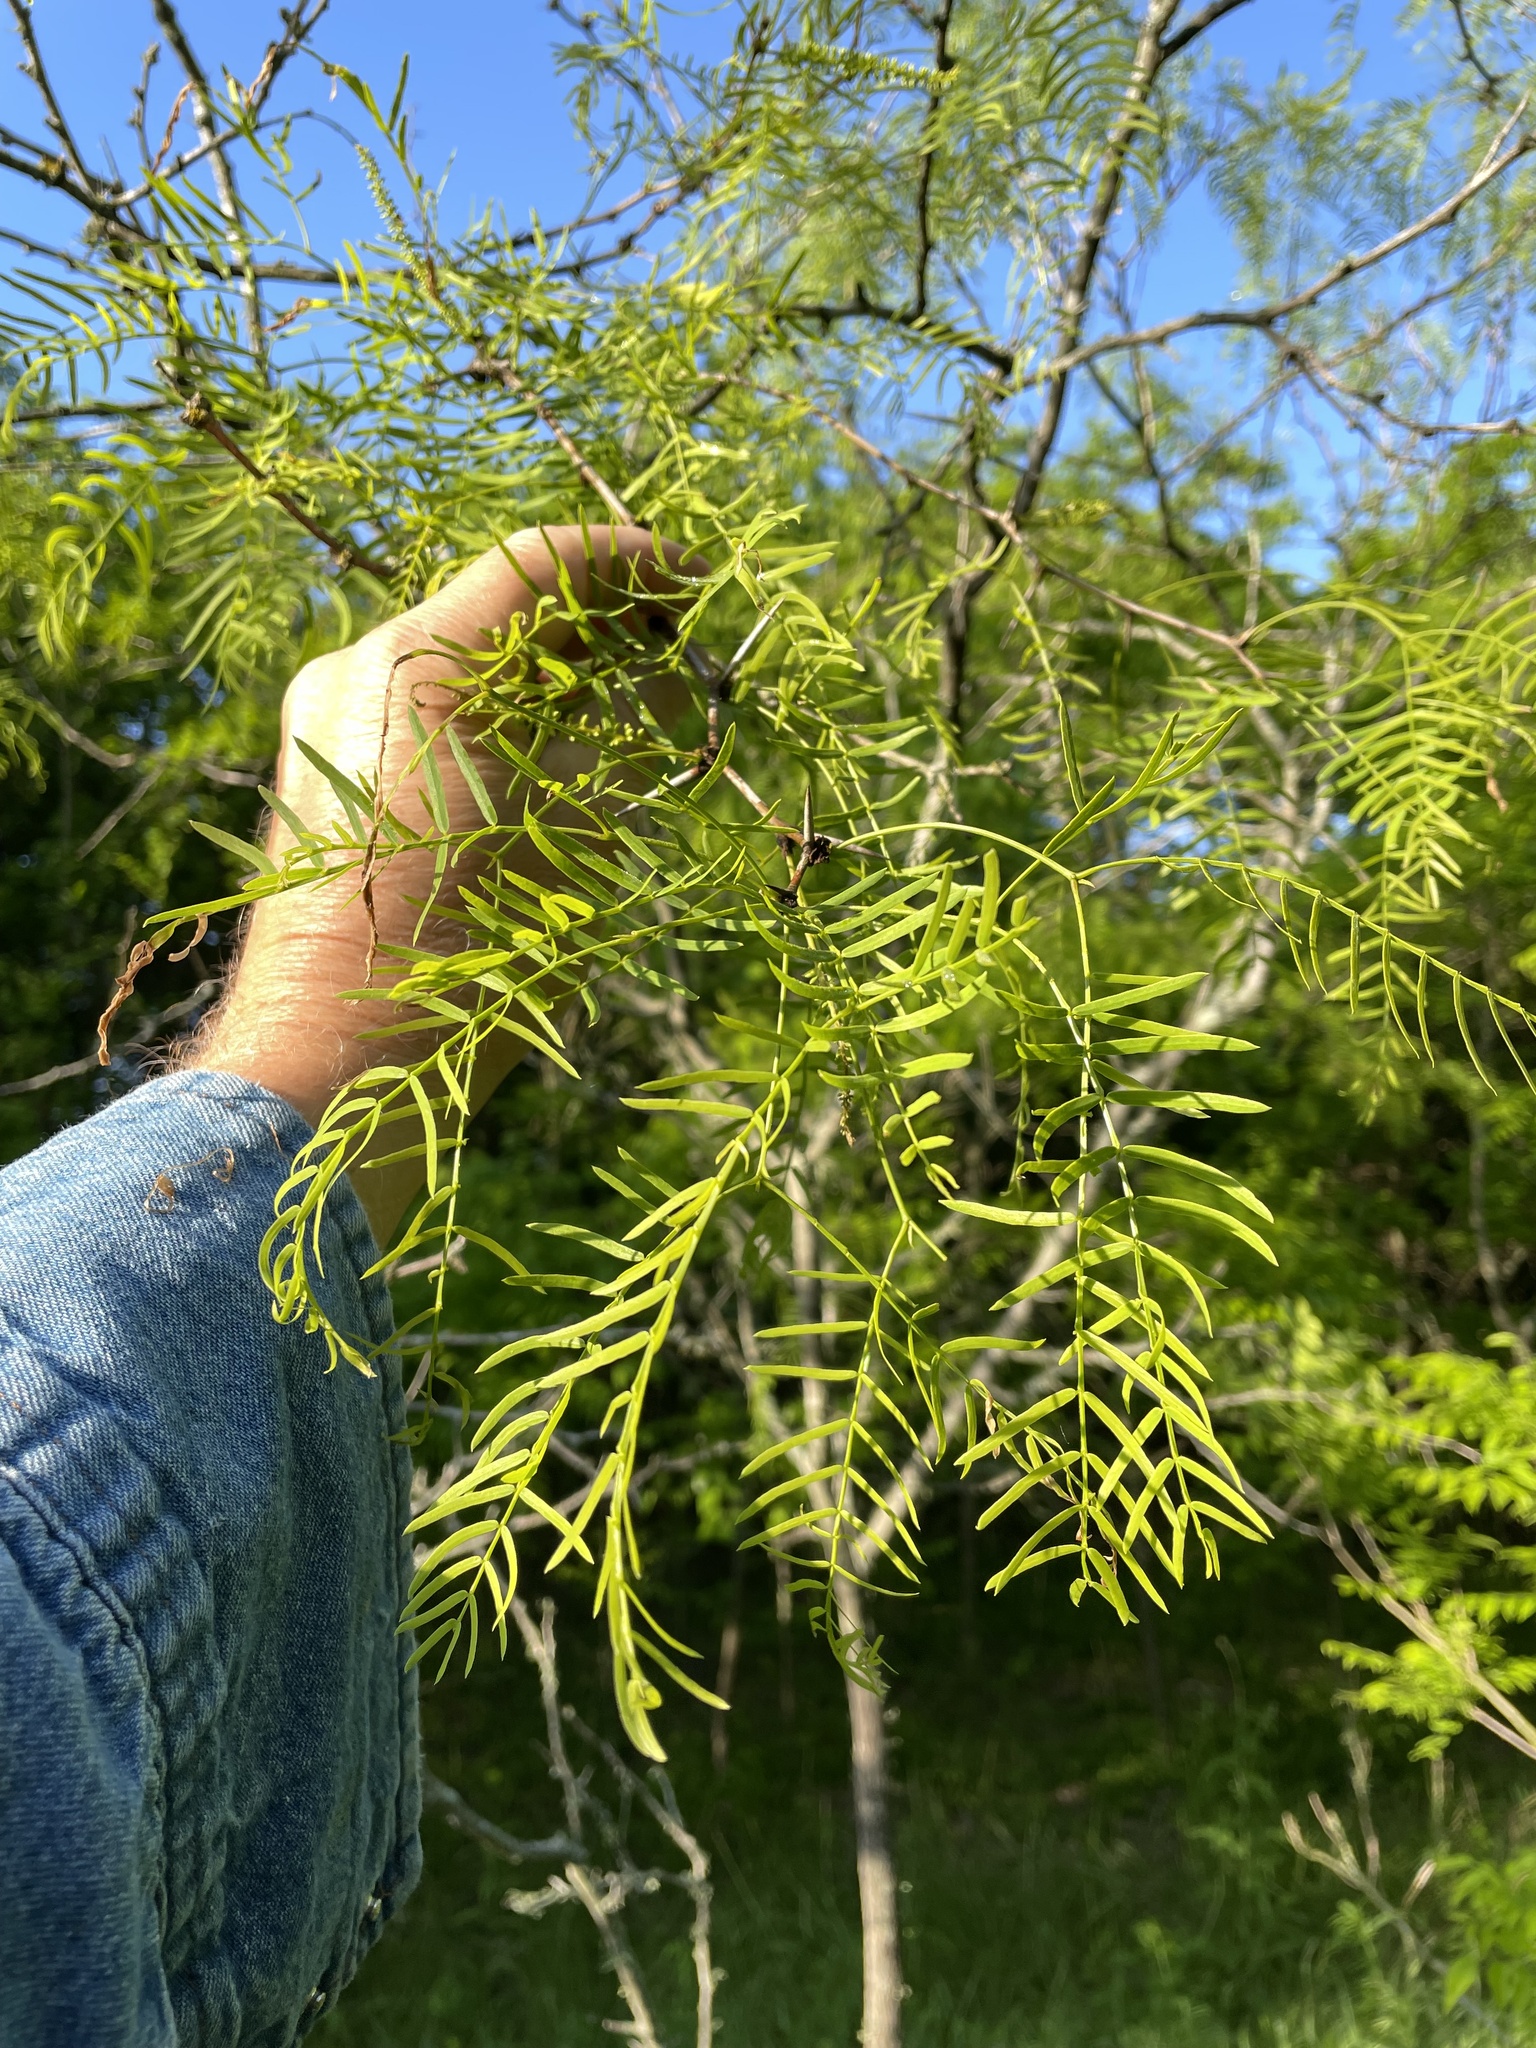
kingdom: Plantae
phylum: Tracheophyta
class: Magnoliopsida
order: Fabales
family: Fabaceae
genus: Prosopis
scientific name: Prosopis glandulosa
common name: Honey mesquite
